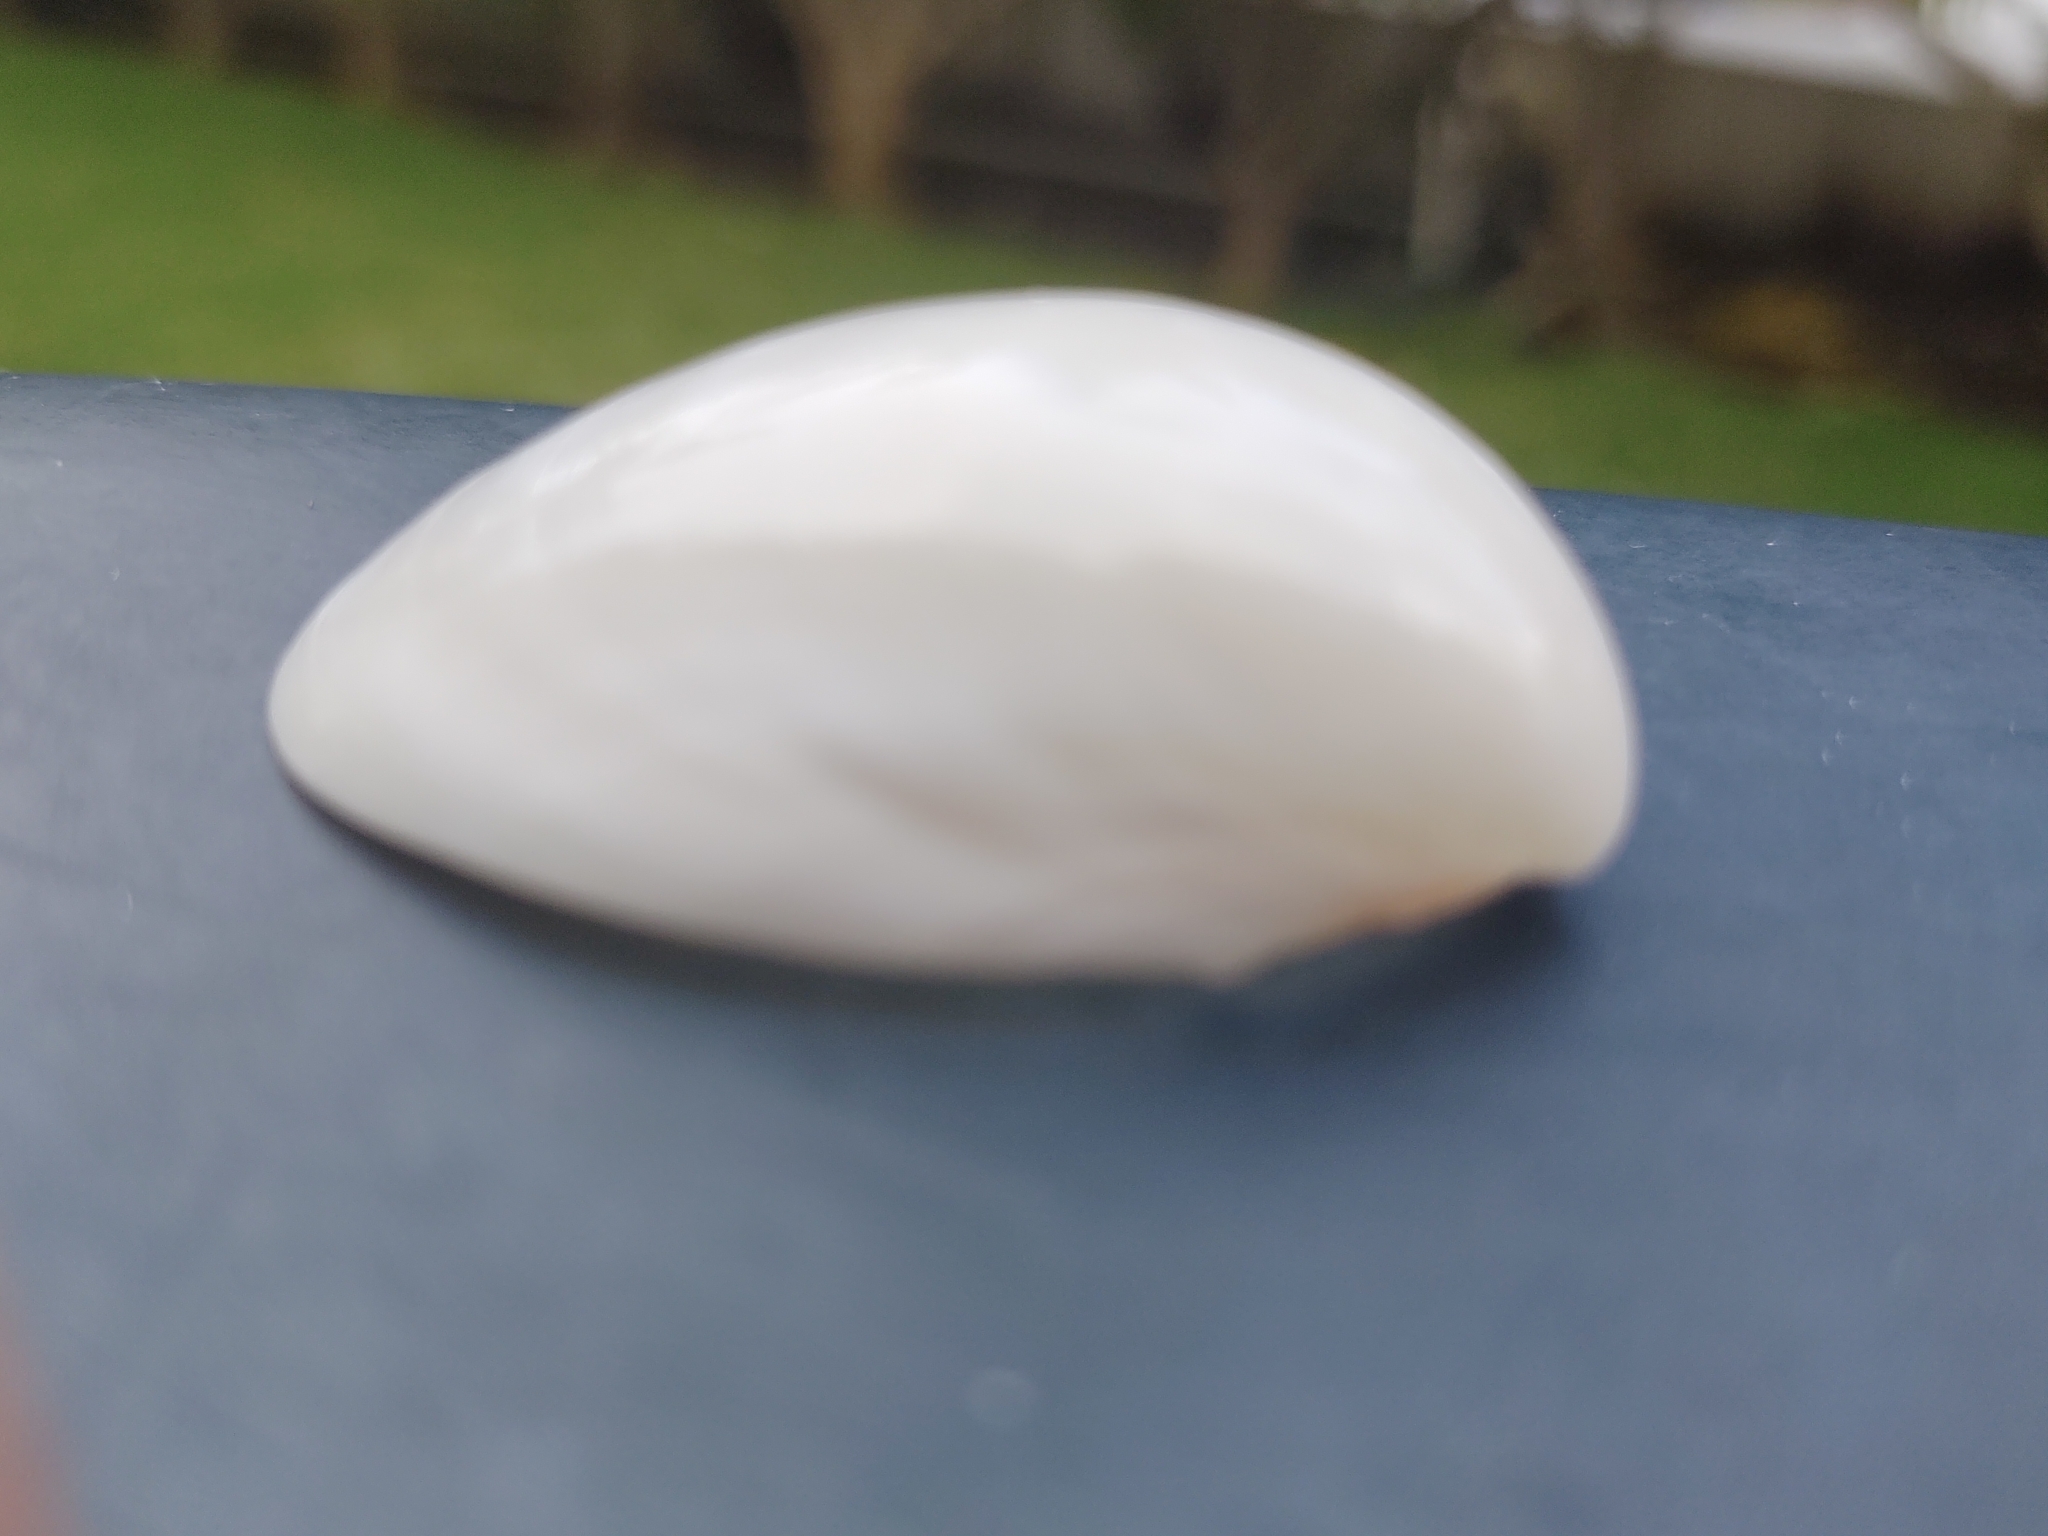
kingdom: Animalia
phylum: Mollusca
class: Bivalvia
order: Cardiida
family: Cardiidae
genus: Laevicardium
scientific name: Laevicardium serratum
